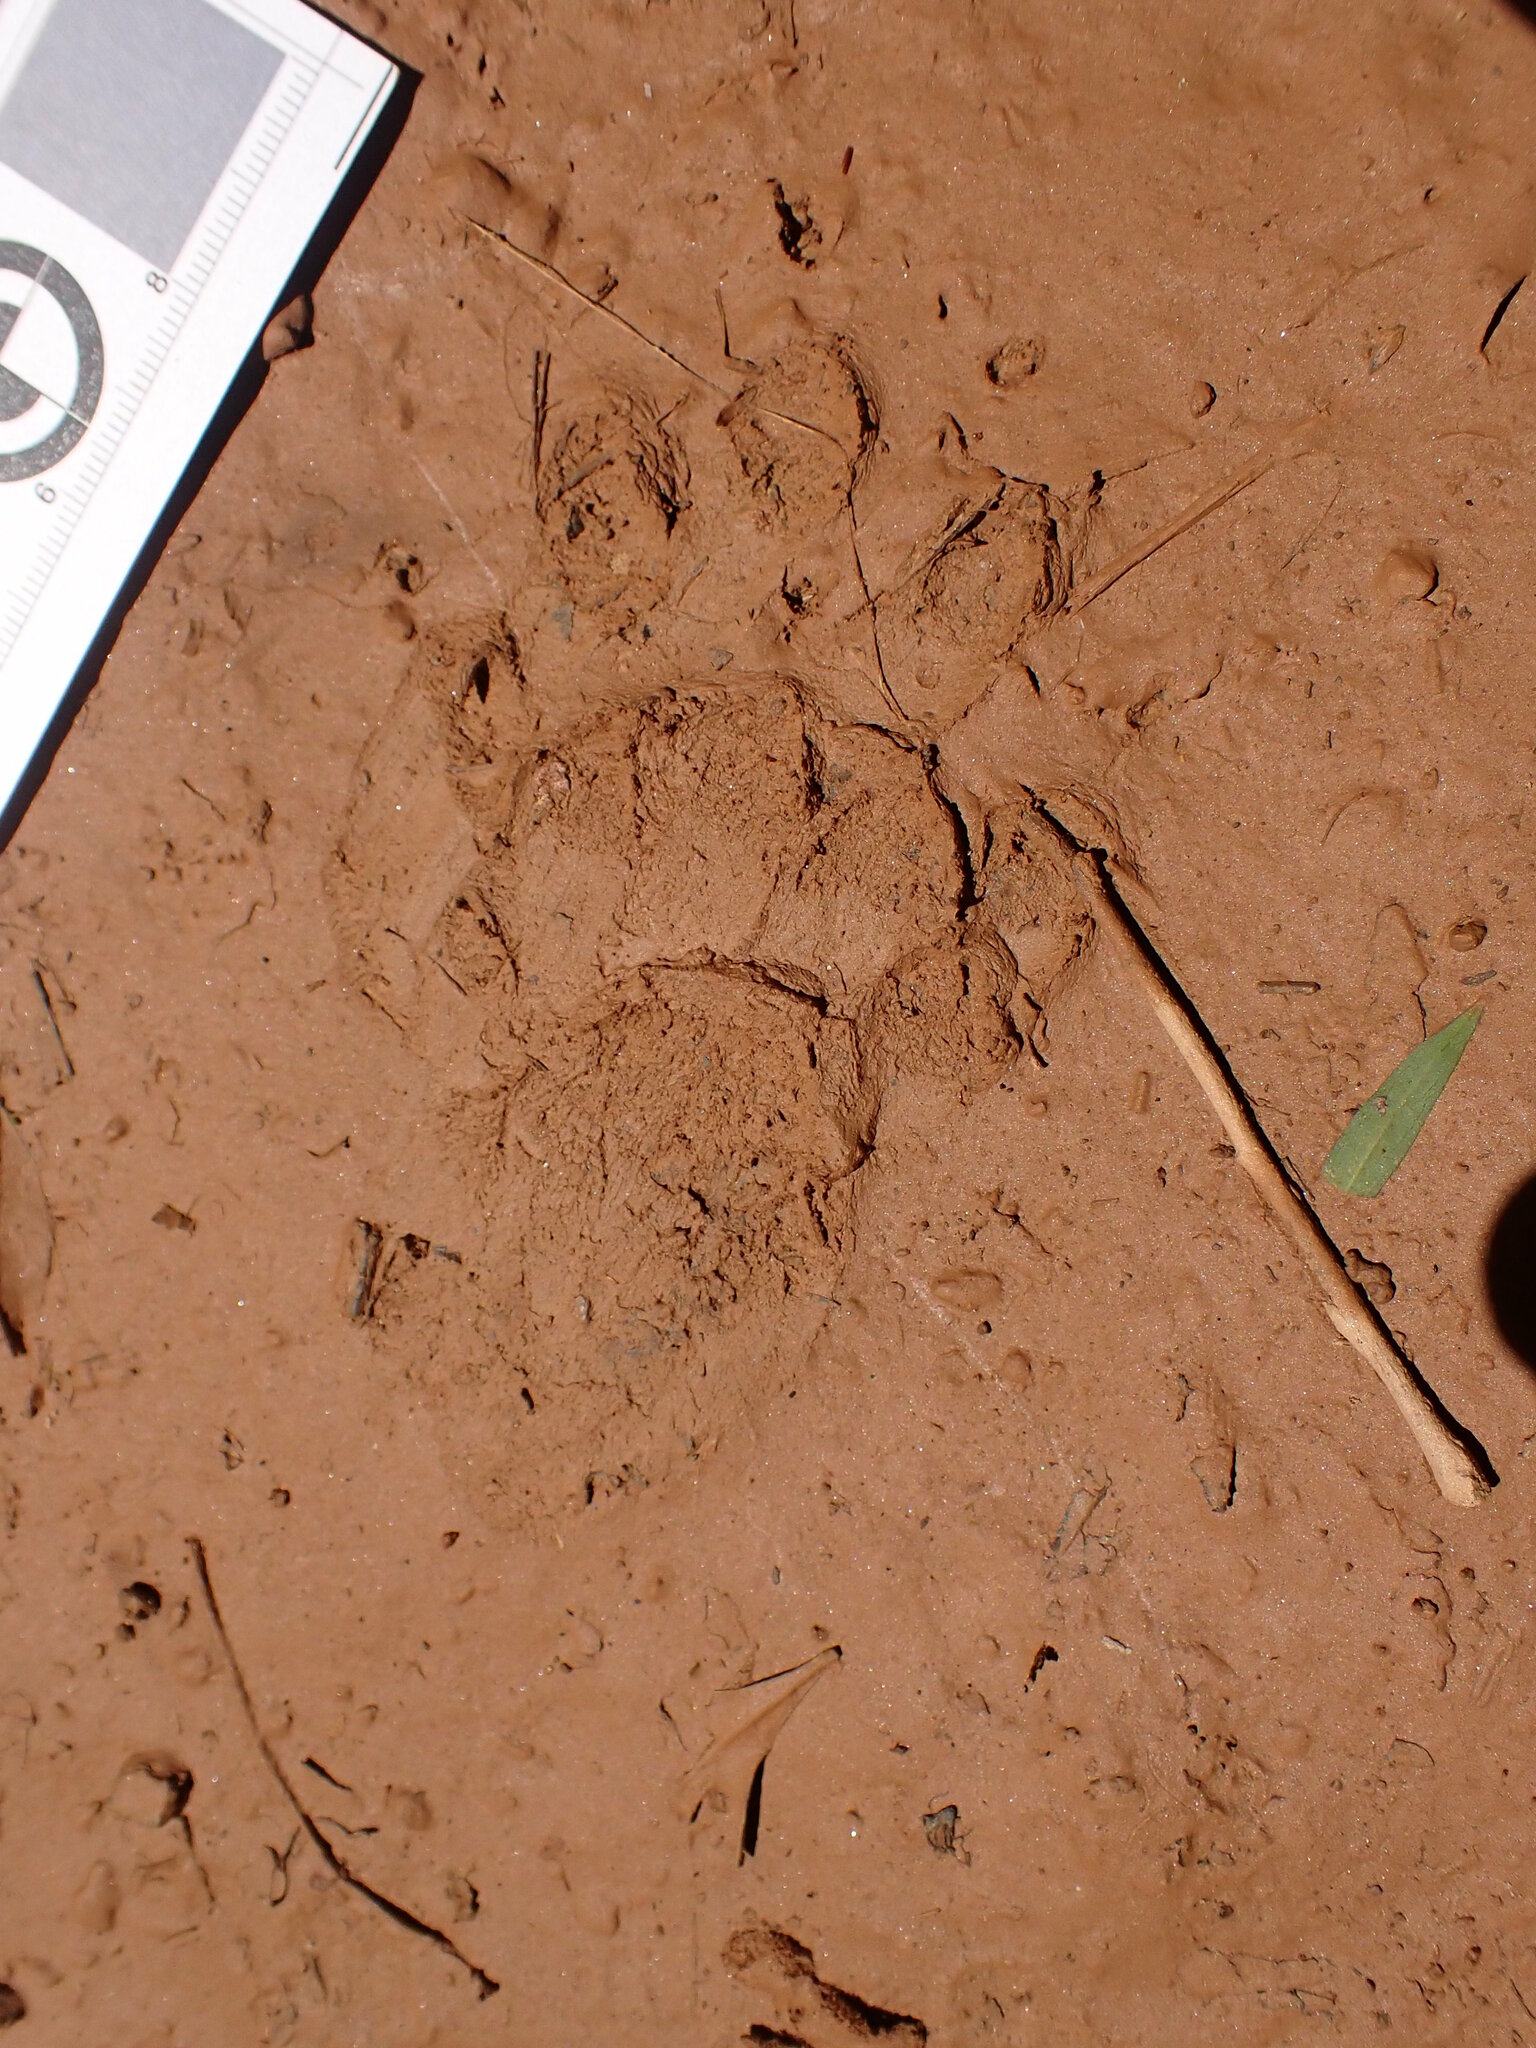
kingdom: Animalia
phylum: Chordata
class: Mammalia
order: Carnivora
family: Mustelidae
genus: Eira
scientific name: Eira barbara
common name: Tayra
